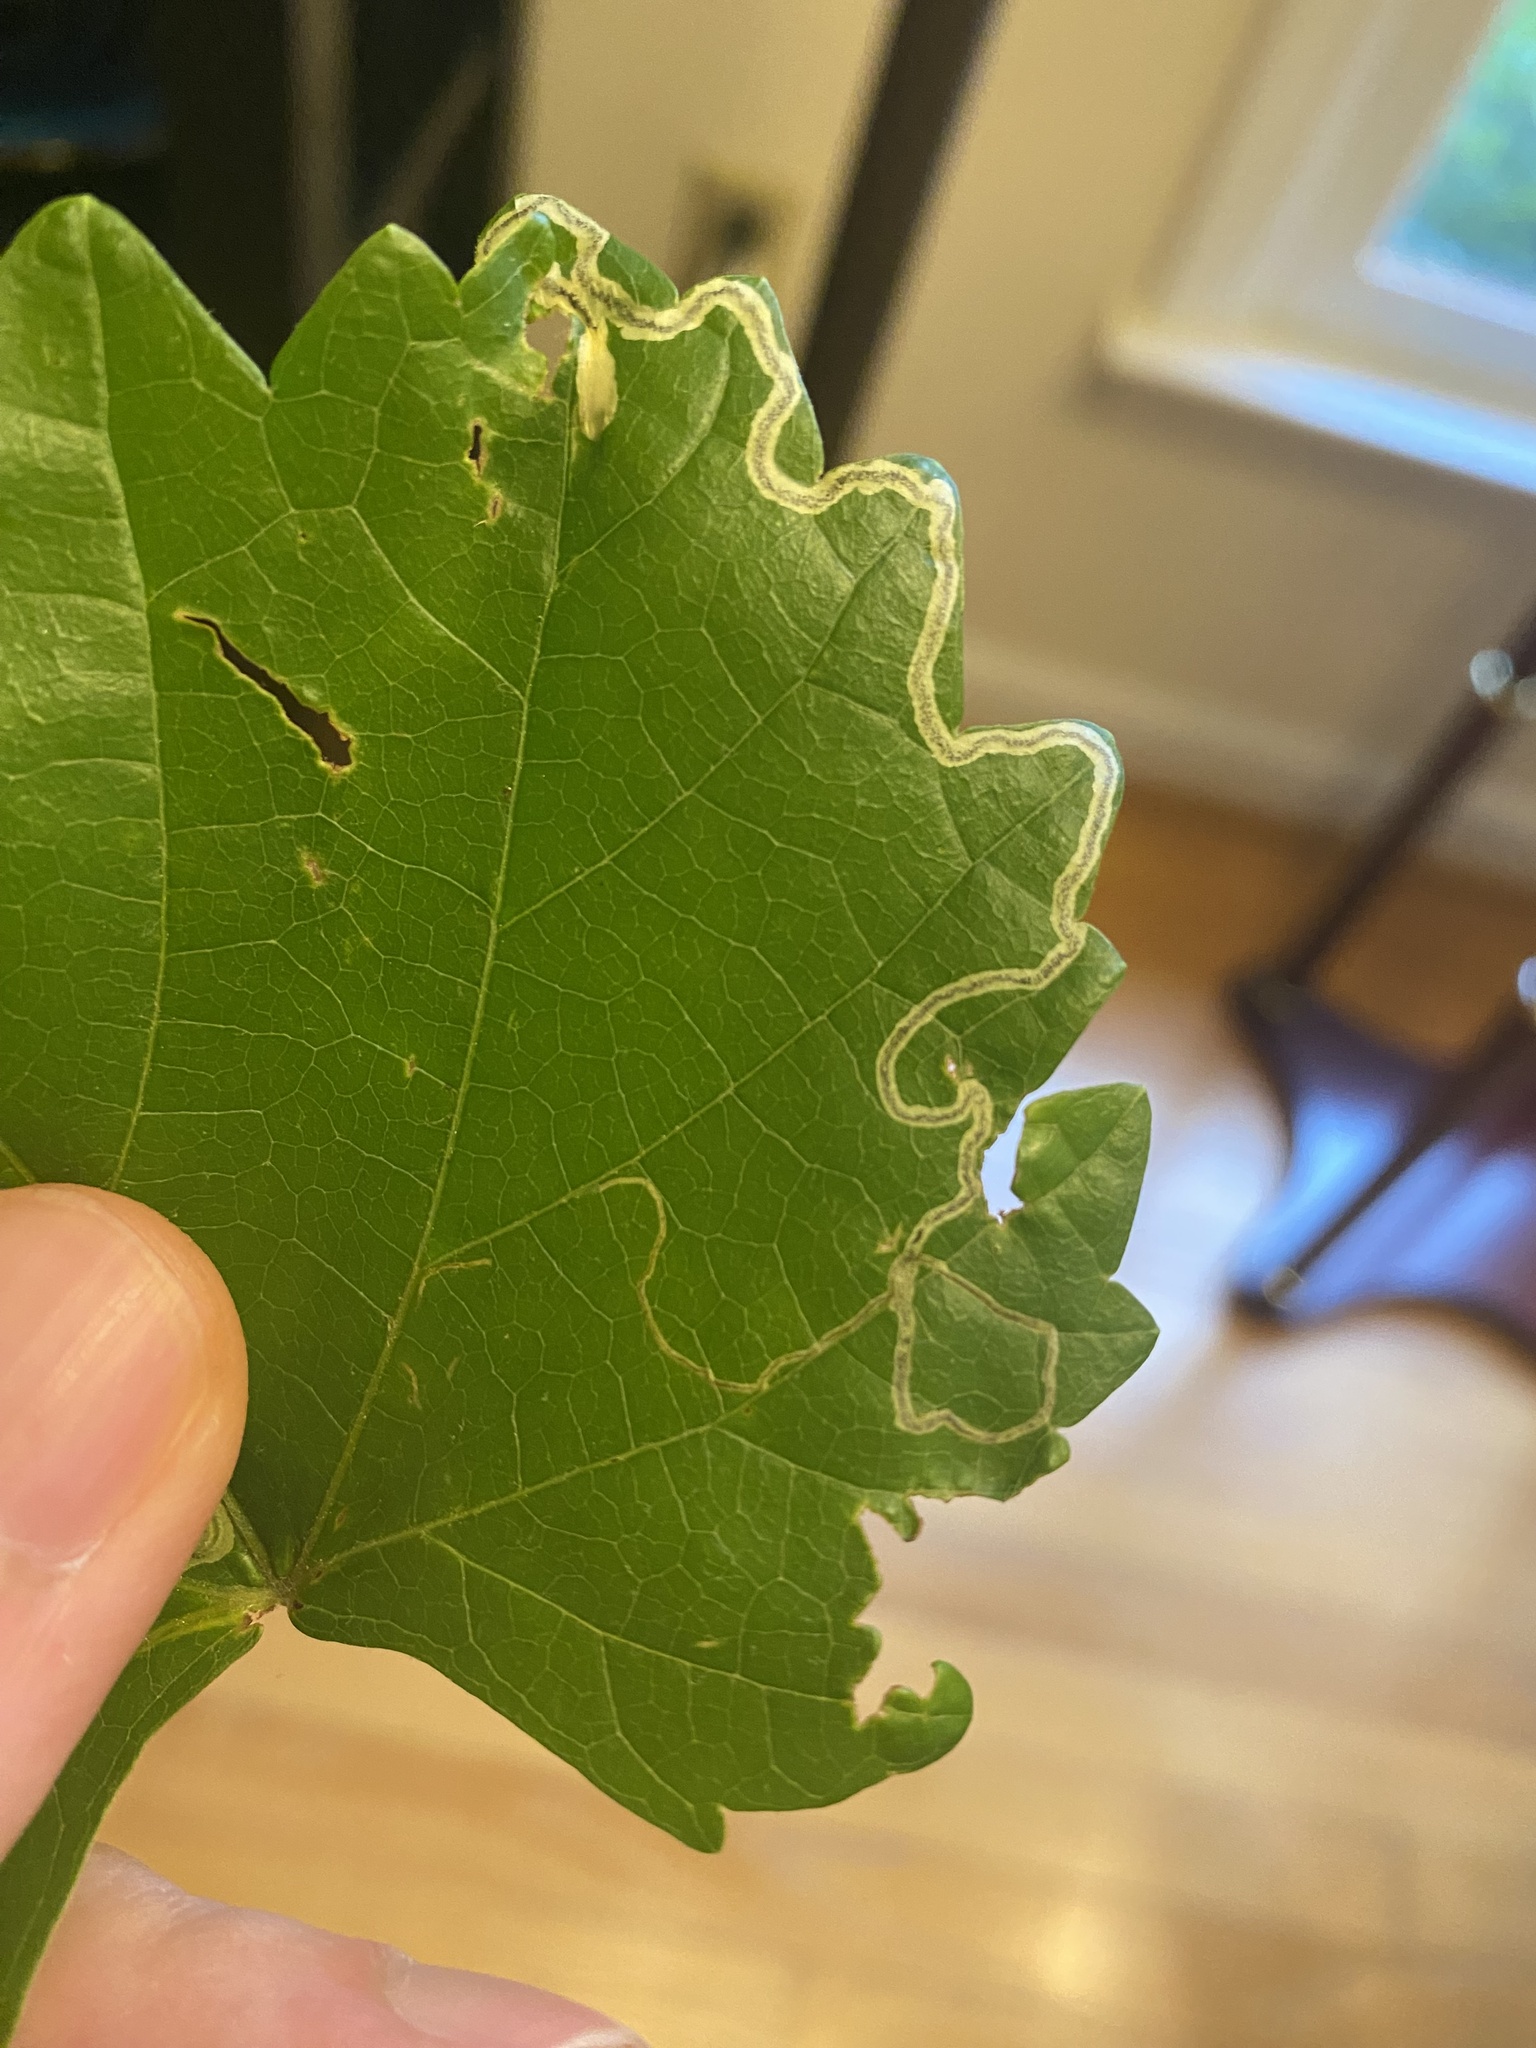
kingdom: Animalia
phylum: Arthropoda
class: Insecta
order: Lepidoptera
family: Gracillariidae
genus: Phyllocnistis
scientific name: Phyllocnistis vitifoliella
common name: Grape leaf-miner moth
